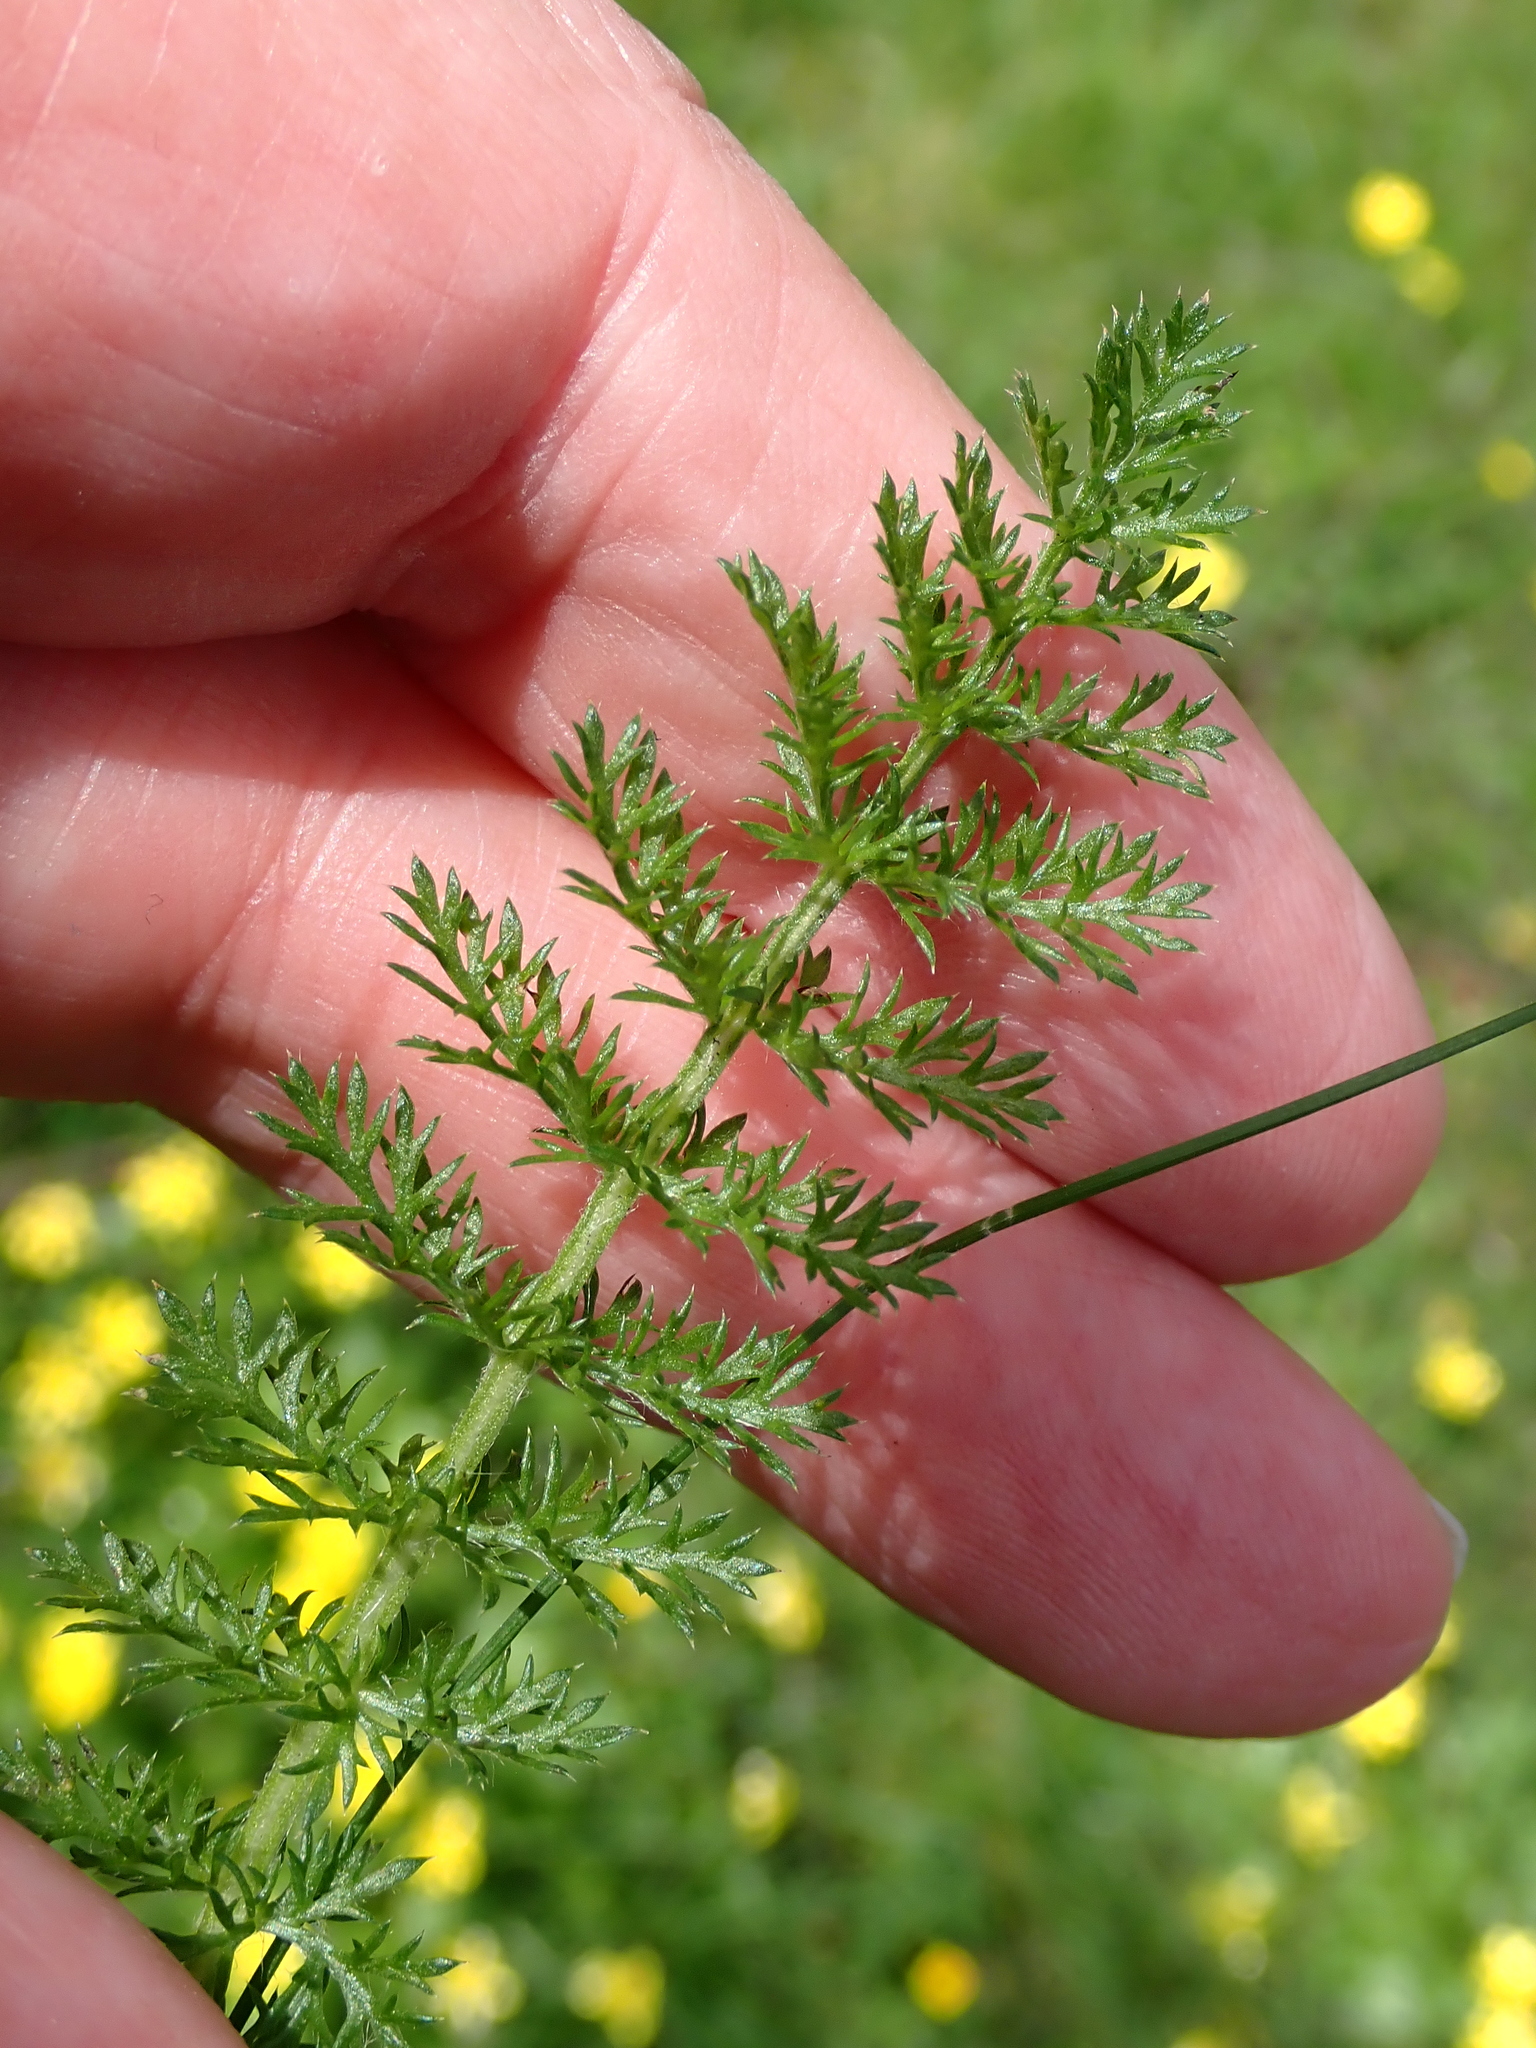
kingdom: Plantae
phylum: Tracheophyta
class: Magnoliopsida
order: Asterales
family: Asteraceae
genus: Achillea
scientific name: Achillea millefolium
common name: Yarrow
